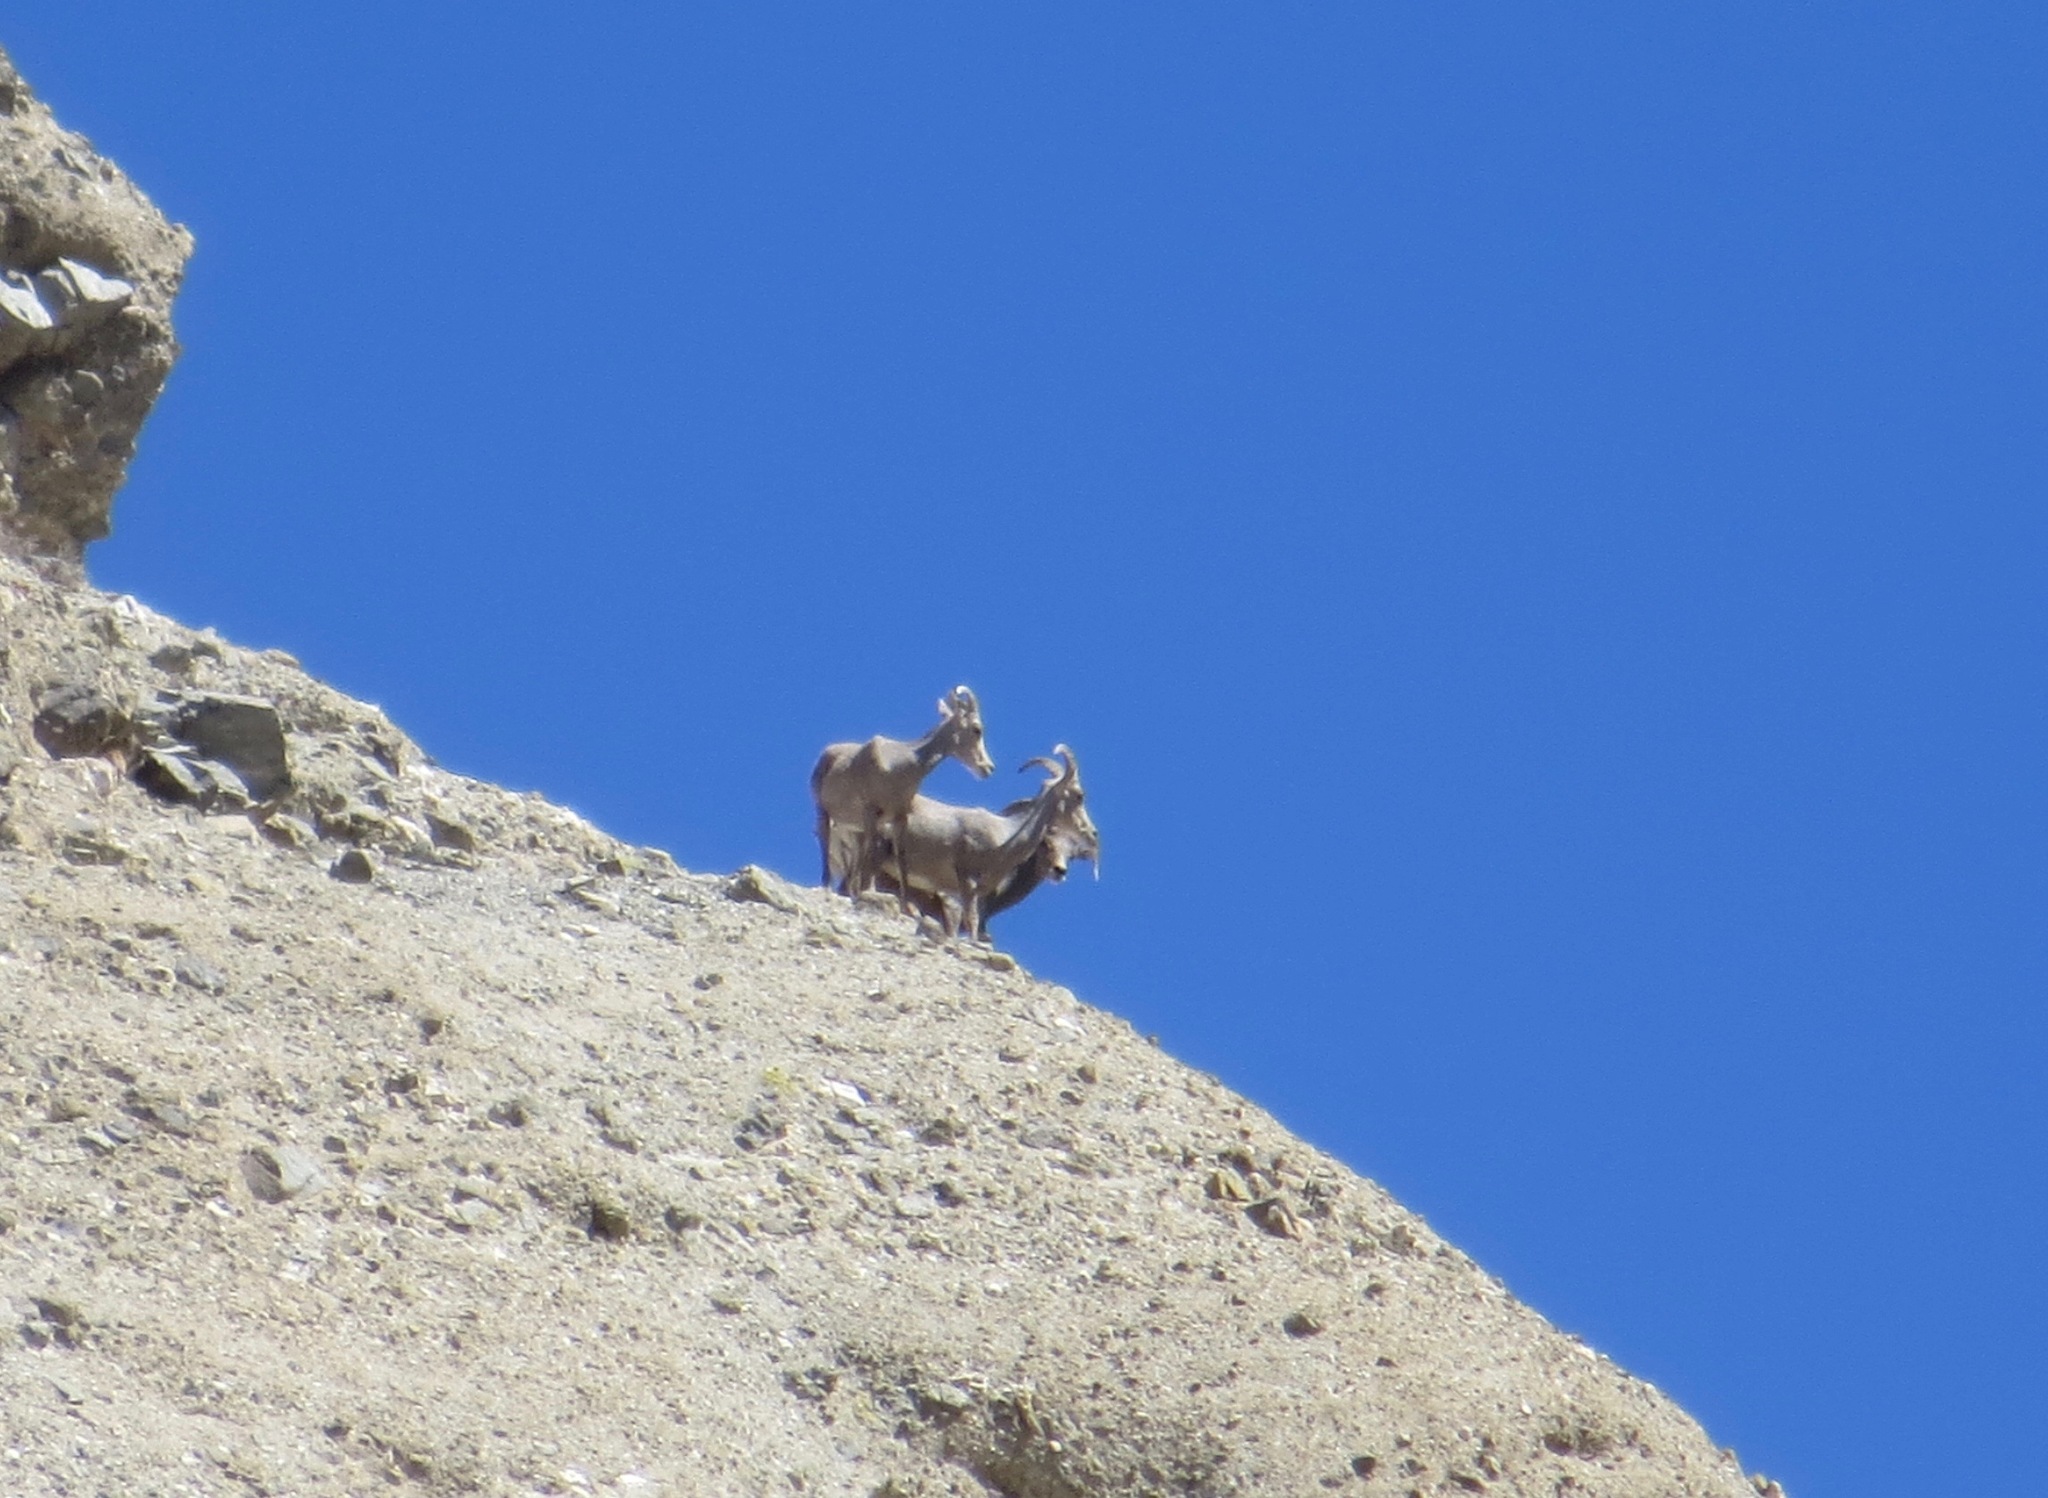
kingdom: Animalia
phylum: Chordata
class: Mammalia
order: Artiodactyla
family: Bovidae
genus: Ovis
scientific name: Ovis canadensis
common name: Bighorn sheep
